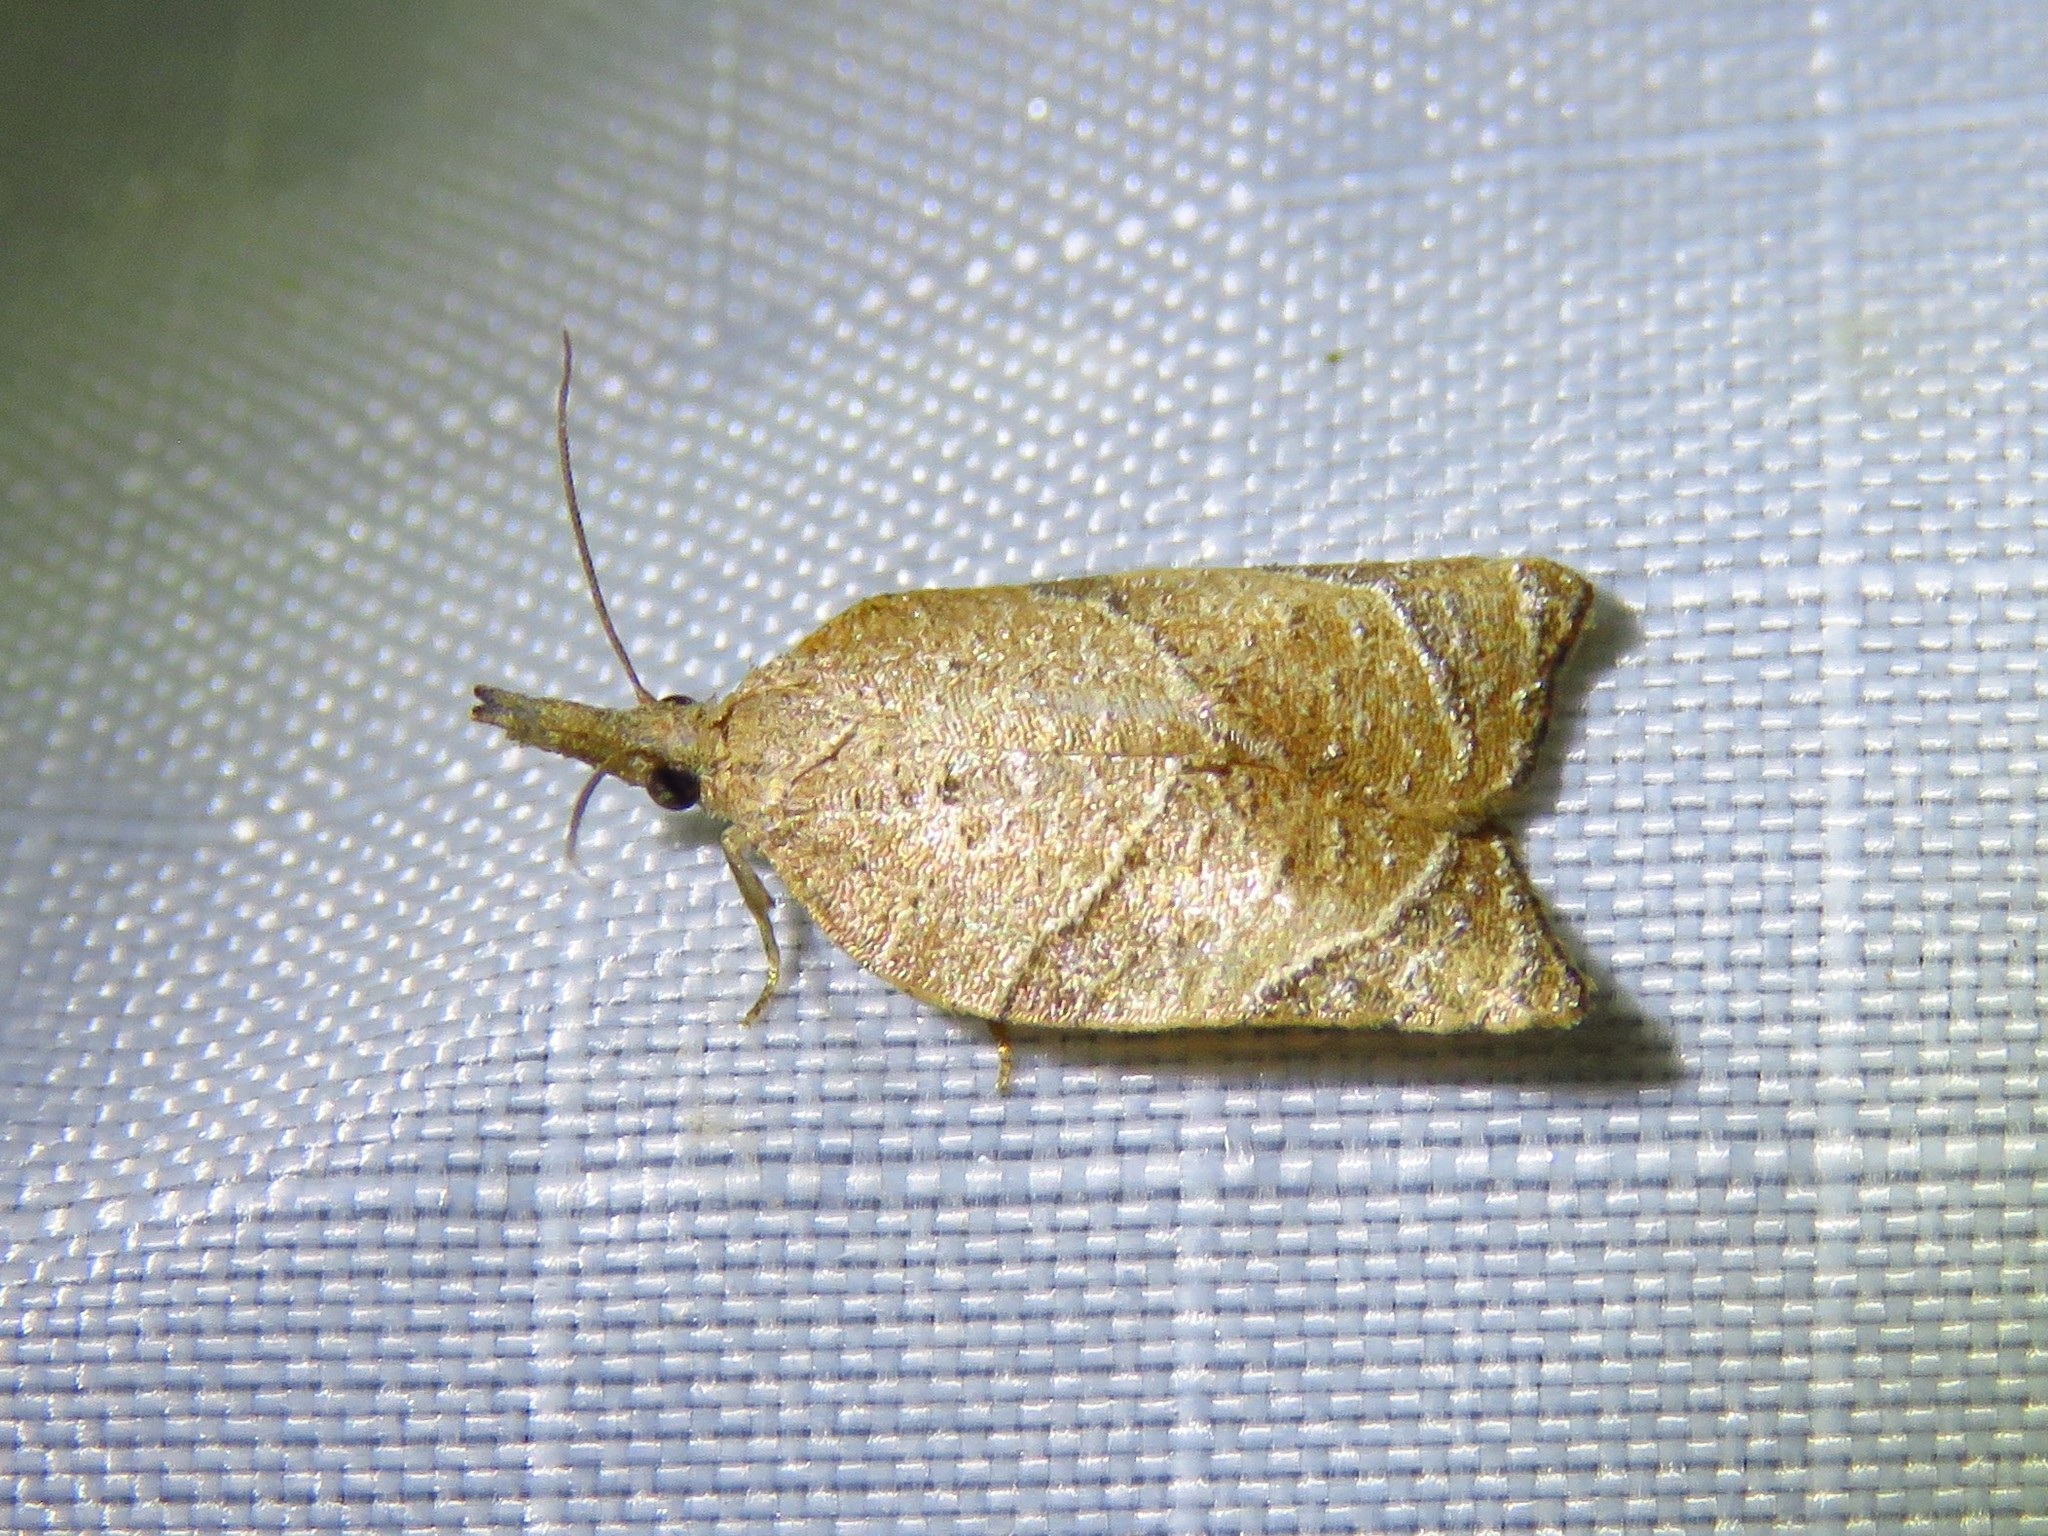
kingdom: Animalia
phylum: Arthropoda
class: Insecta
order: Lepidoptera
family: Tortricidae
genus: Platynota
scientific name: Platynota rostrana
